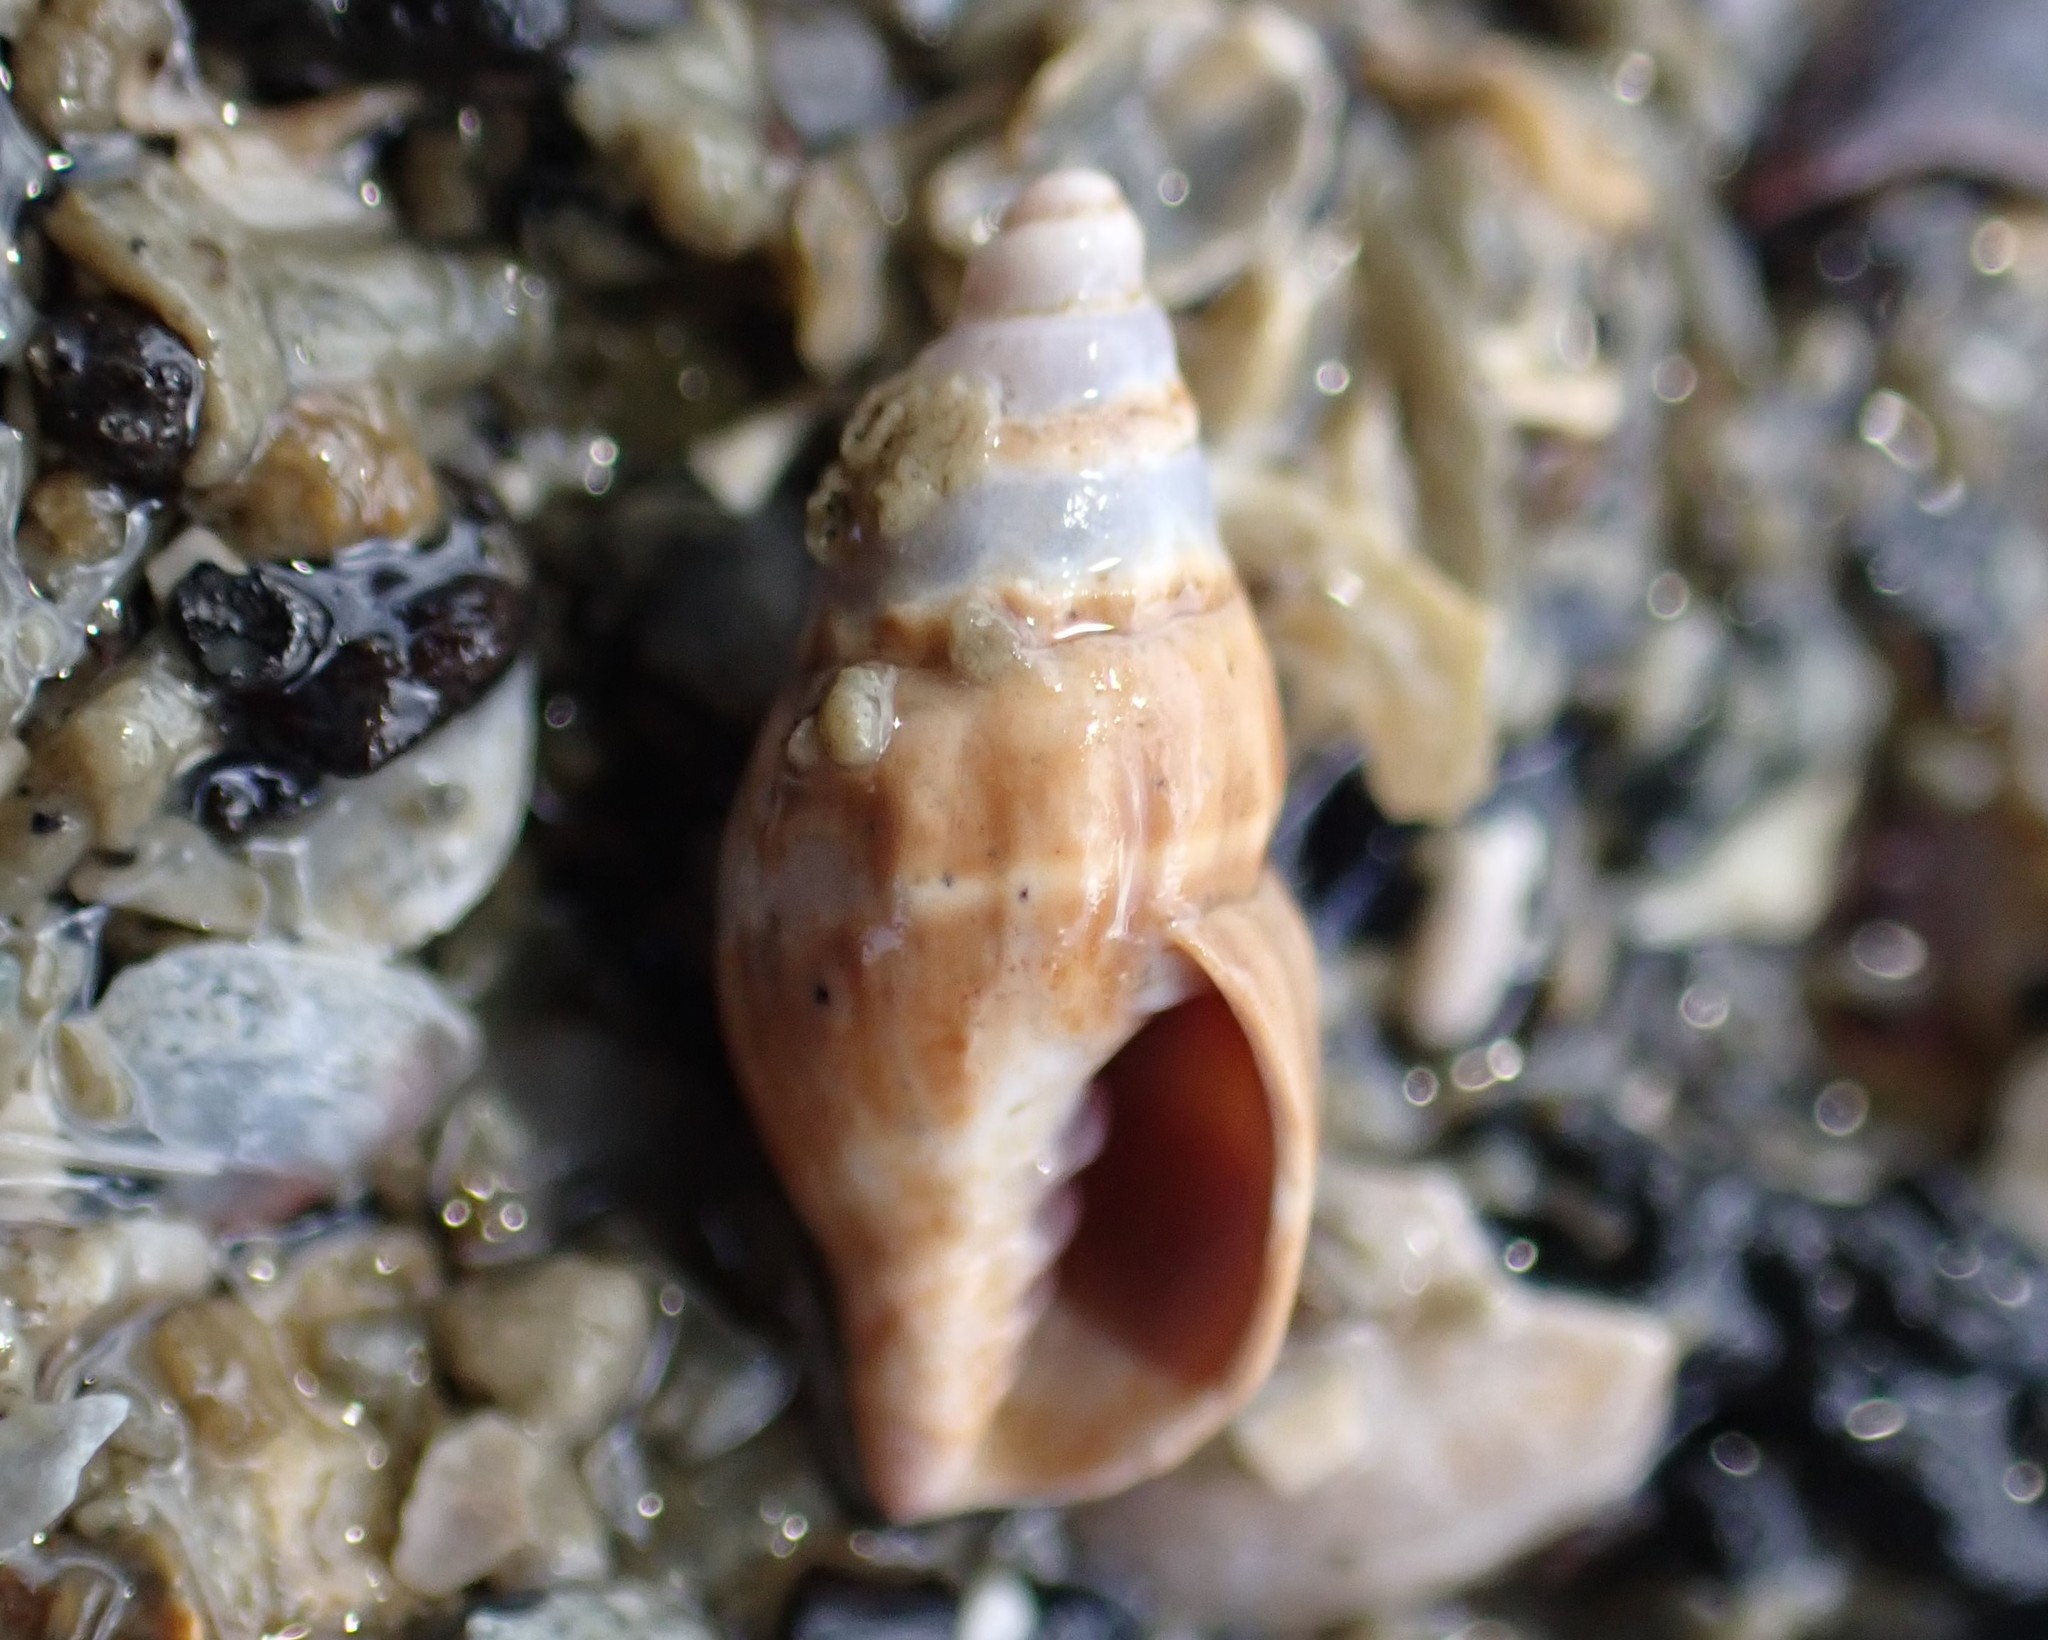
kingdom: Animalia
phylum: Mollusca
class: Gastropoda
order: Neogastropoda
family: Costellariidae
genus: Austromitra
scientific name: Austromitra rubiginosa
